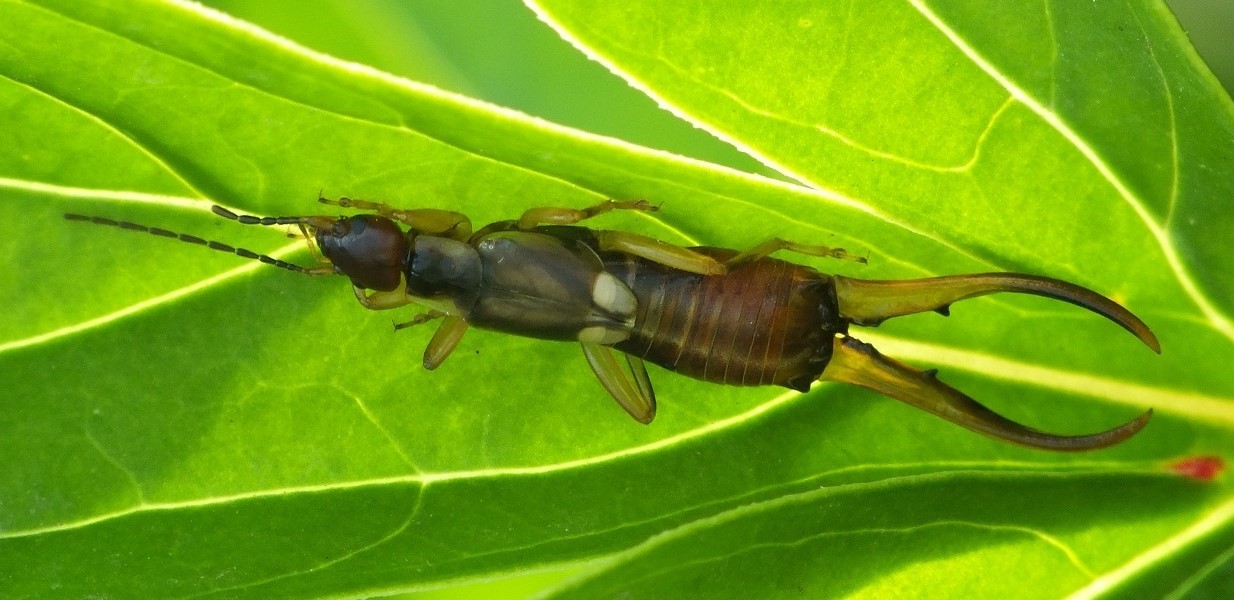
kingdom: Animalia
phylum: Arthropoda
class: Insecta
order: Dermaptera
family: Forficulidae
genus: Forficula
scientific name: Forficula
